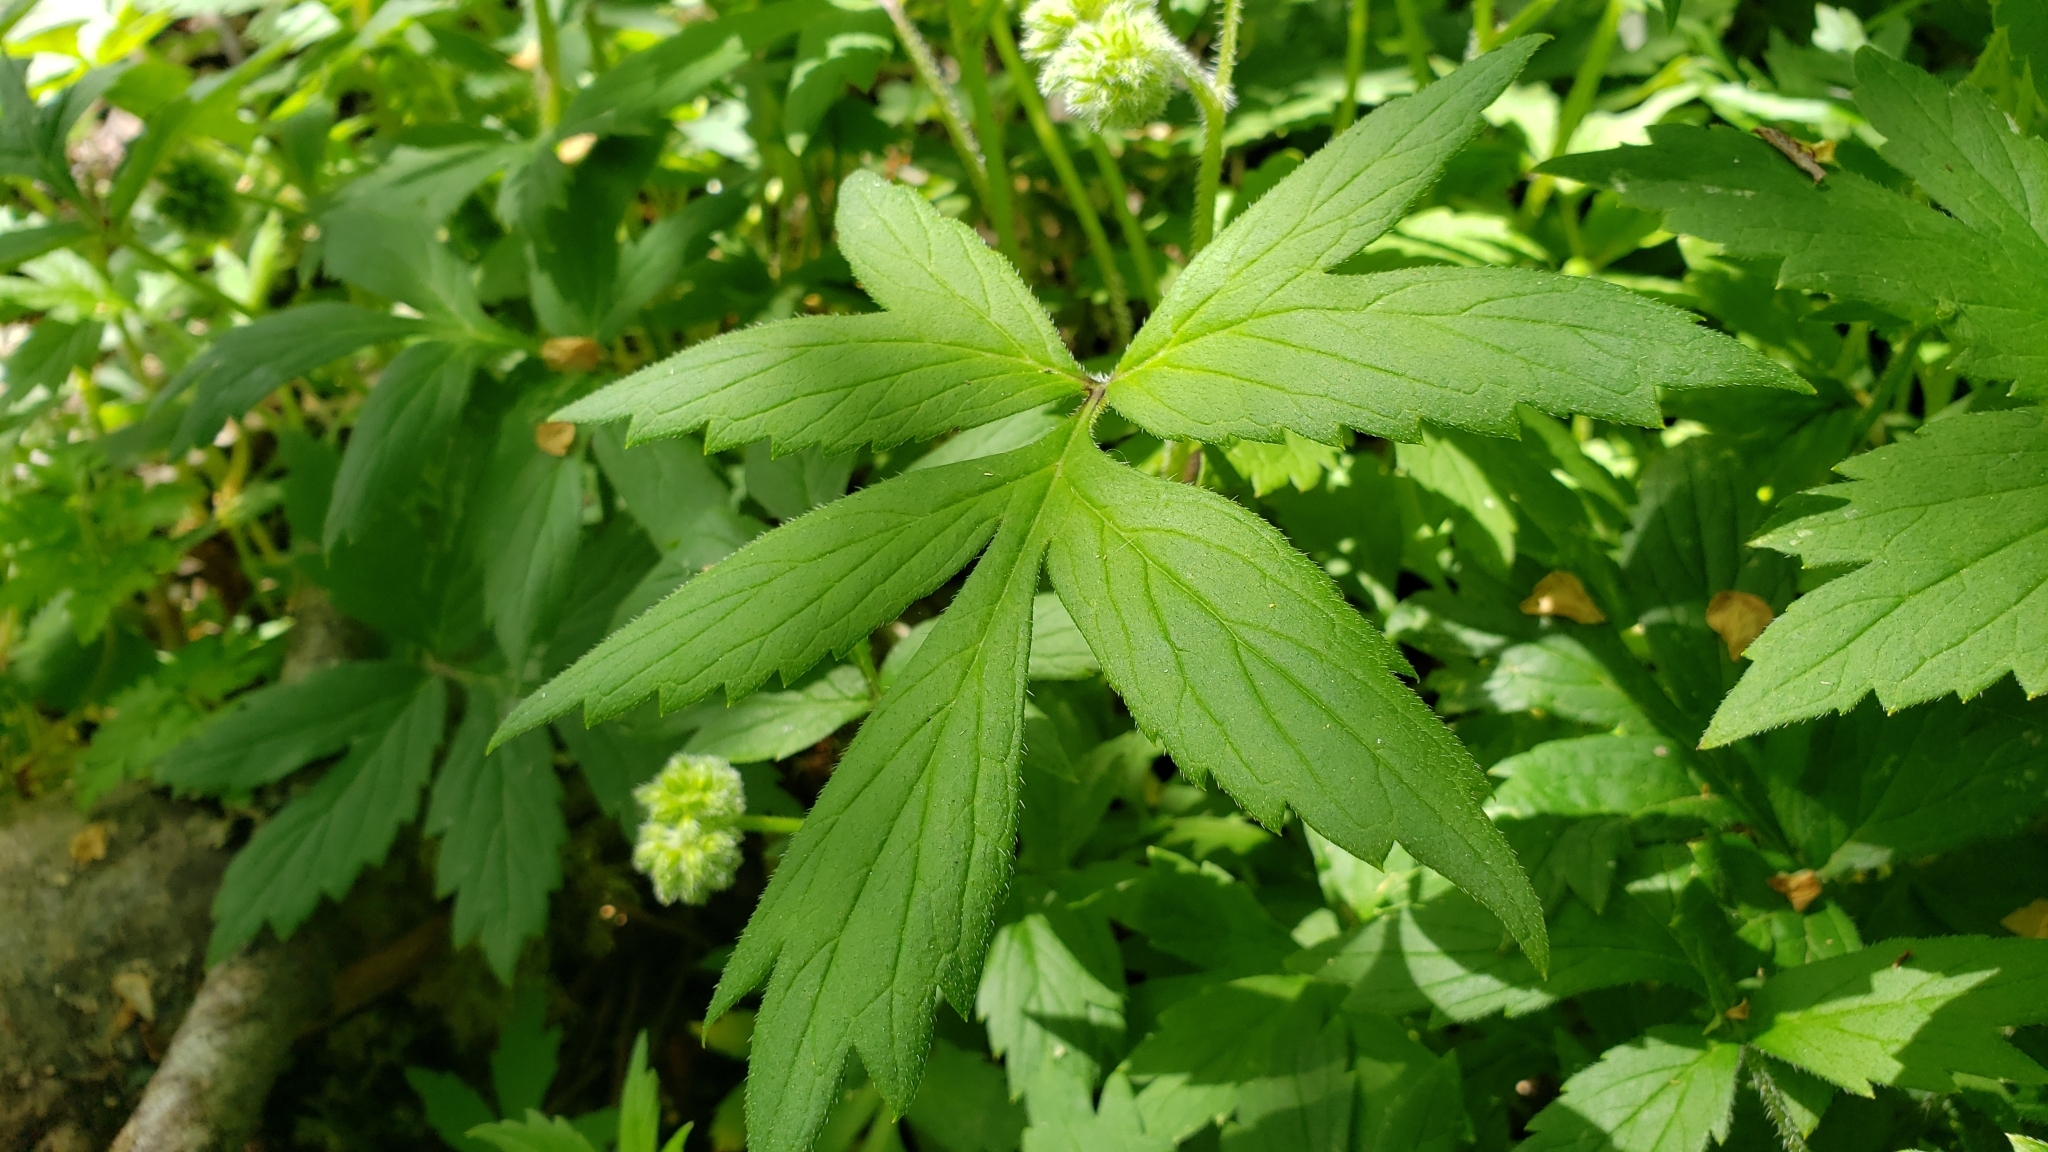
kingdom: Plantae
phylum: Tracheophyta
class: Magnoliopsida
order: Boraginales
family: Hydrophyllaceae
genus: Hydrophyllum
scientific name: Hydrophyllum tenuipes
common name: Pacific waterleaf
